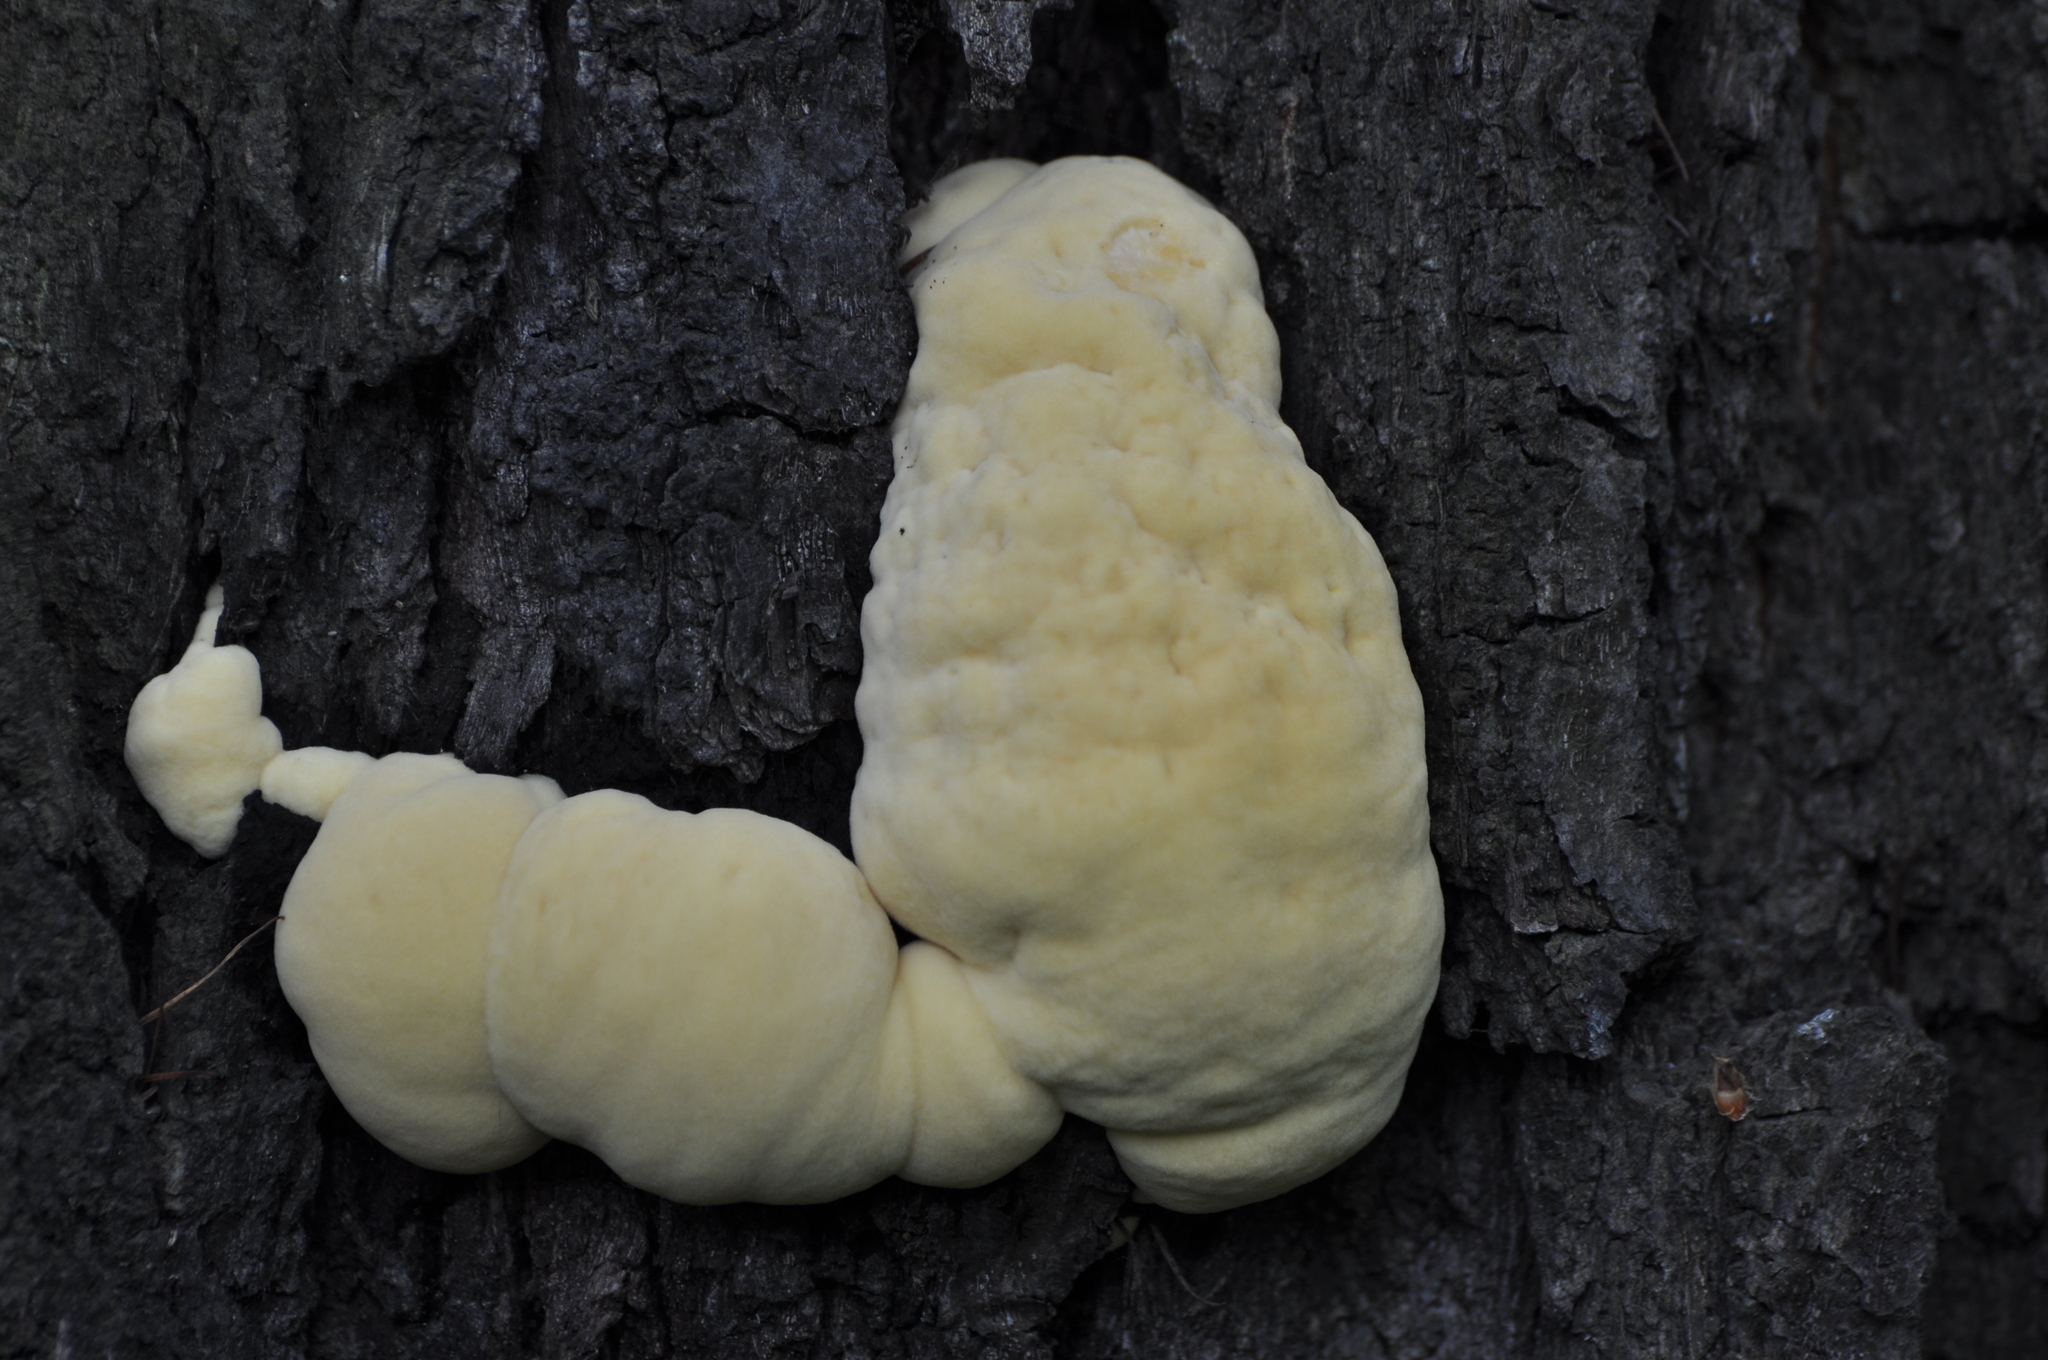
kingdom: Fungi
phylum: Basidiomycota
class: Agaricomycetes
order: Polyporales
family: Laetiporaceae
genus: Laetiporus
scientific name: Laetiporus sulphureus
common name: Chicken of the woods
